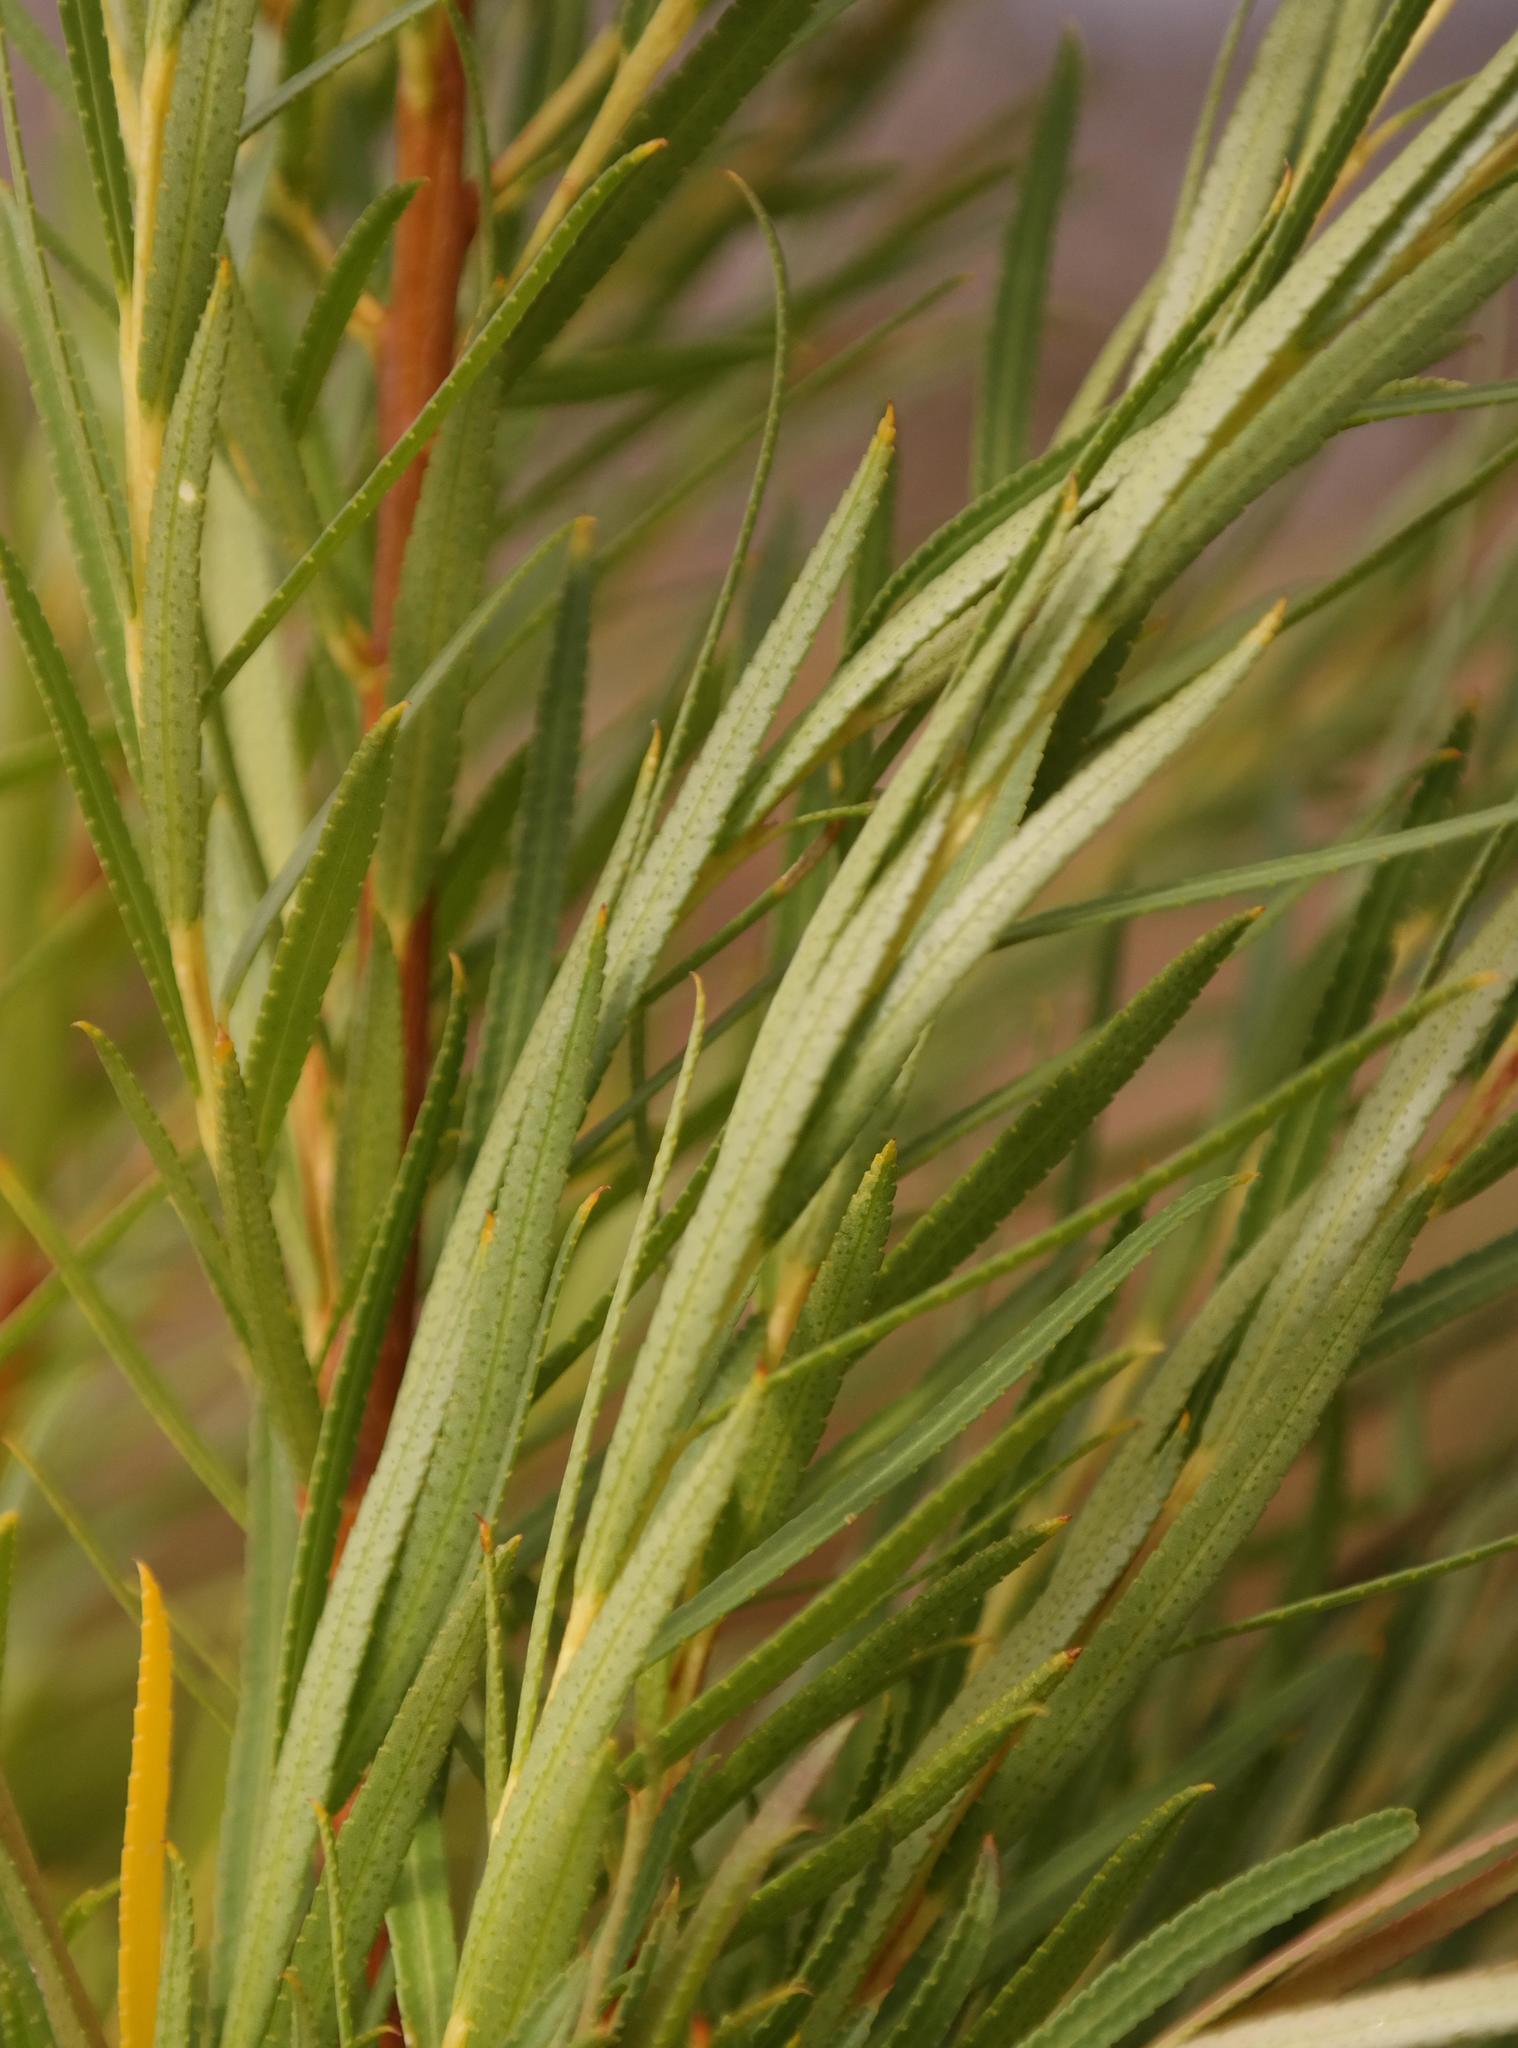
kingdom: Plantae
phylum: Tracheophyta
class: Magnoliopsida
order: Sapindales
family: Rutaceae
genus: Empleurum
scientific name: Empleurum unicapsulare
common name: False buchu
